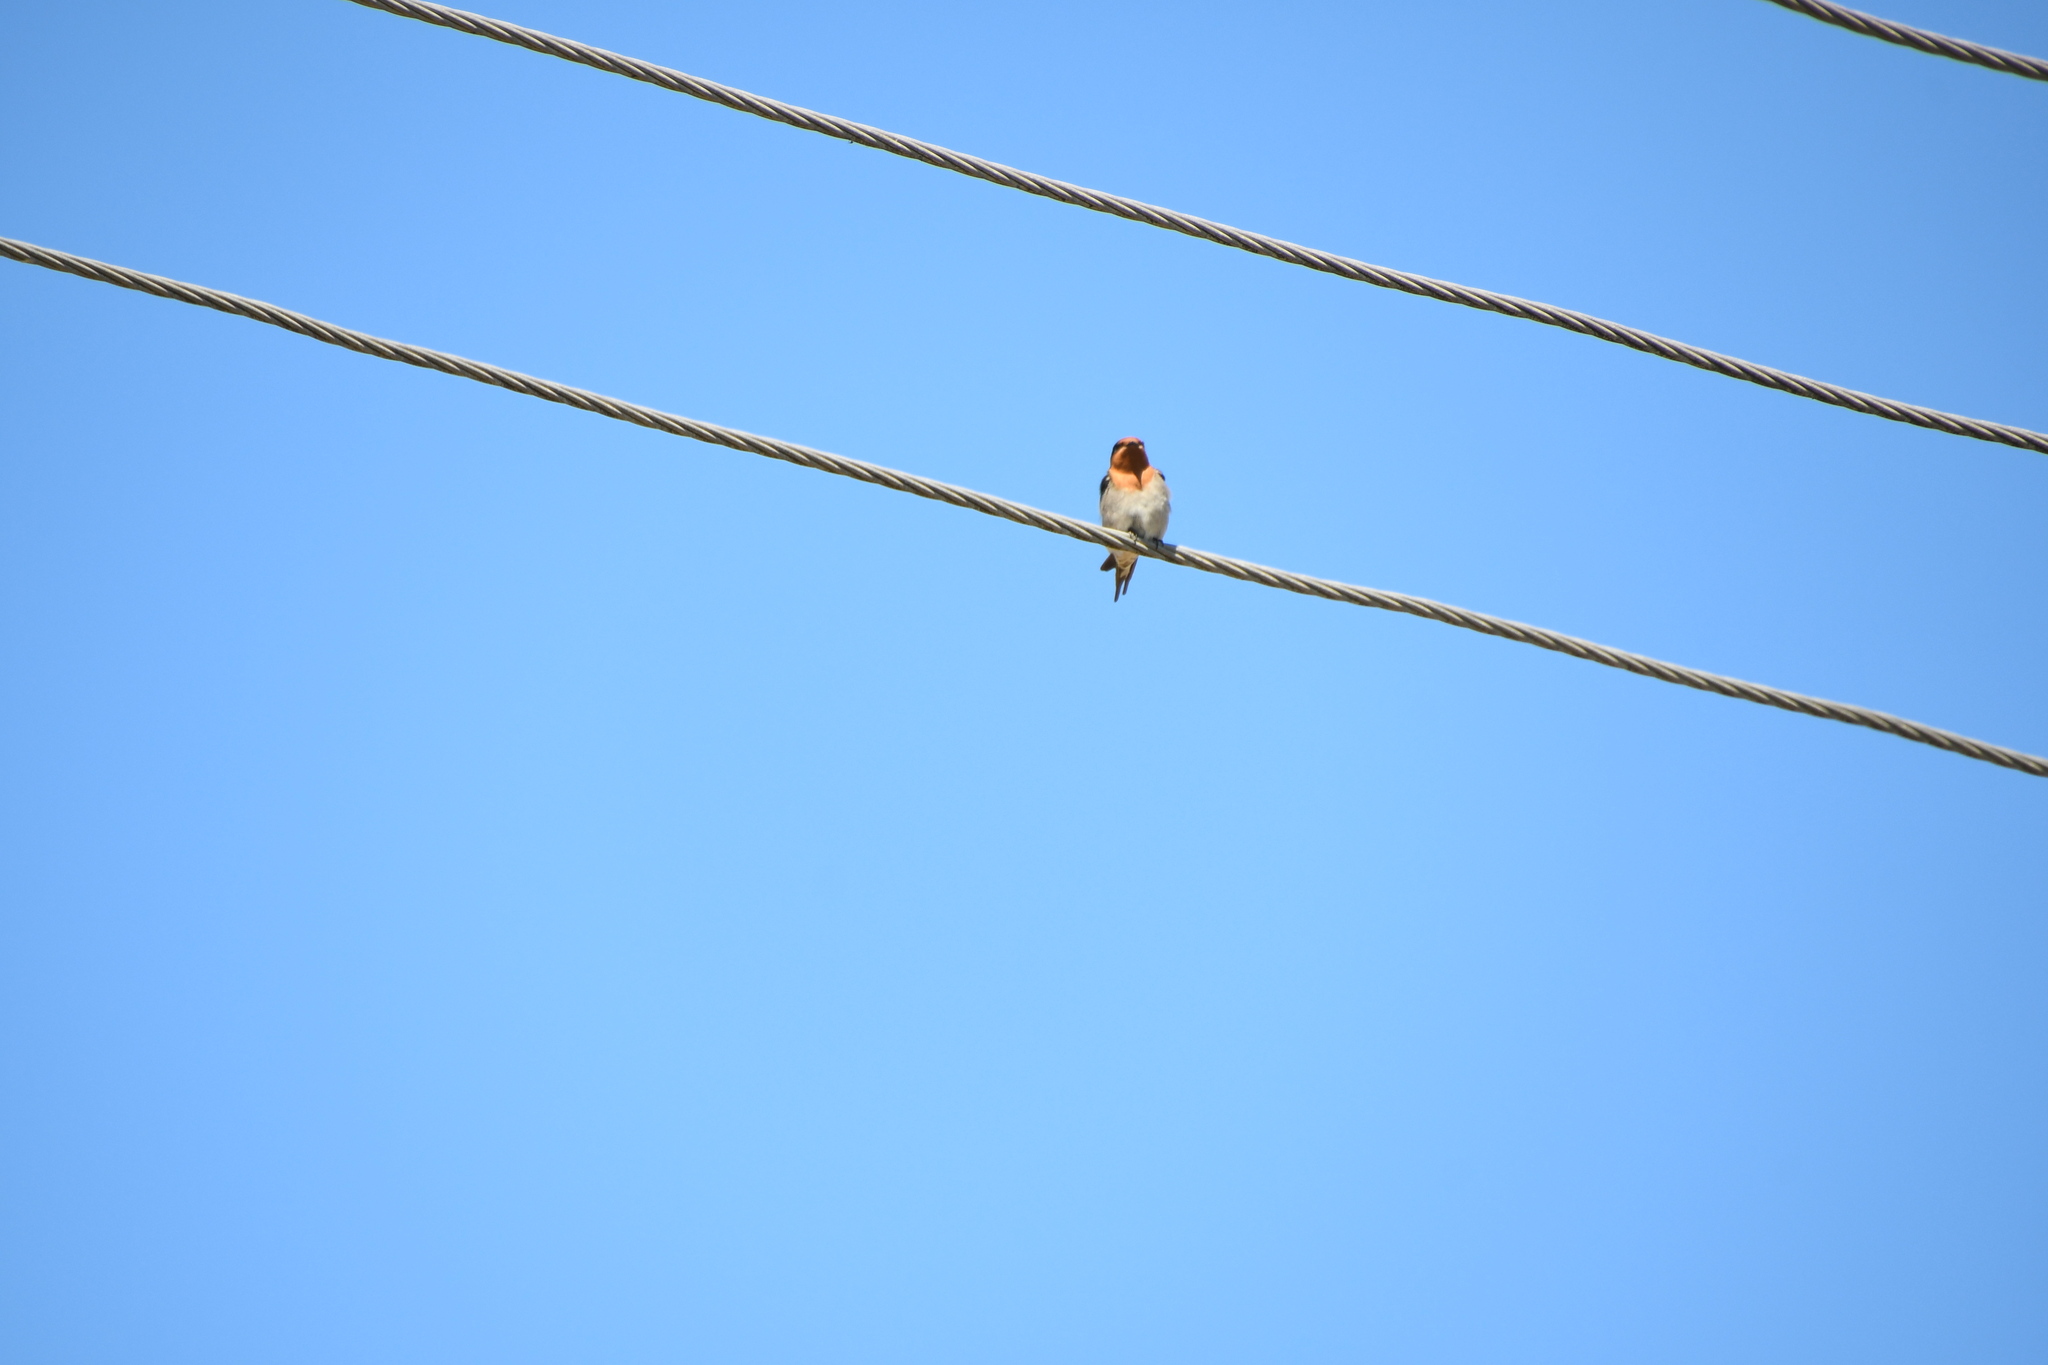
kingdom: Animalia
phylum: Chordata
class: Aves
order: Passeriformes
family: Hirundinidae
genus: Hirundo
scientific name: Hirundo neoxena
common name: Welcome swallow
